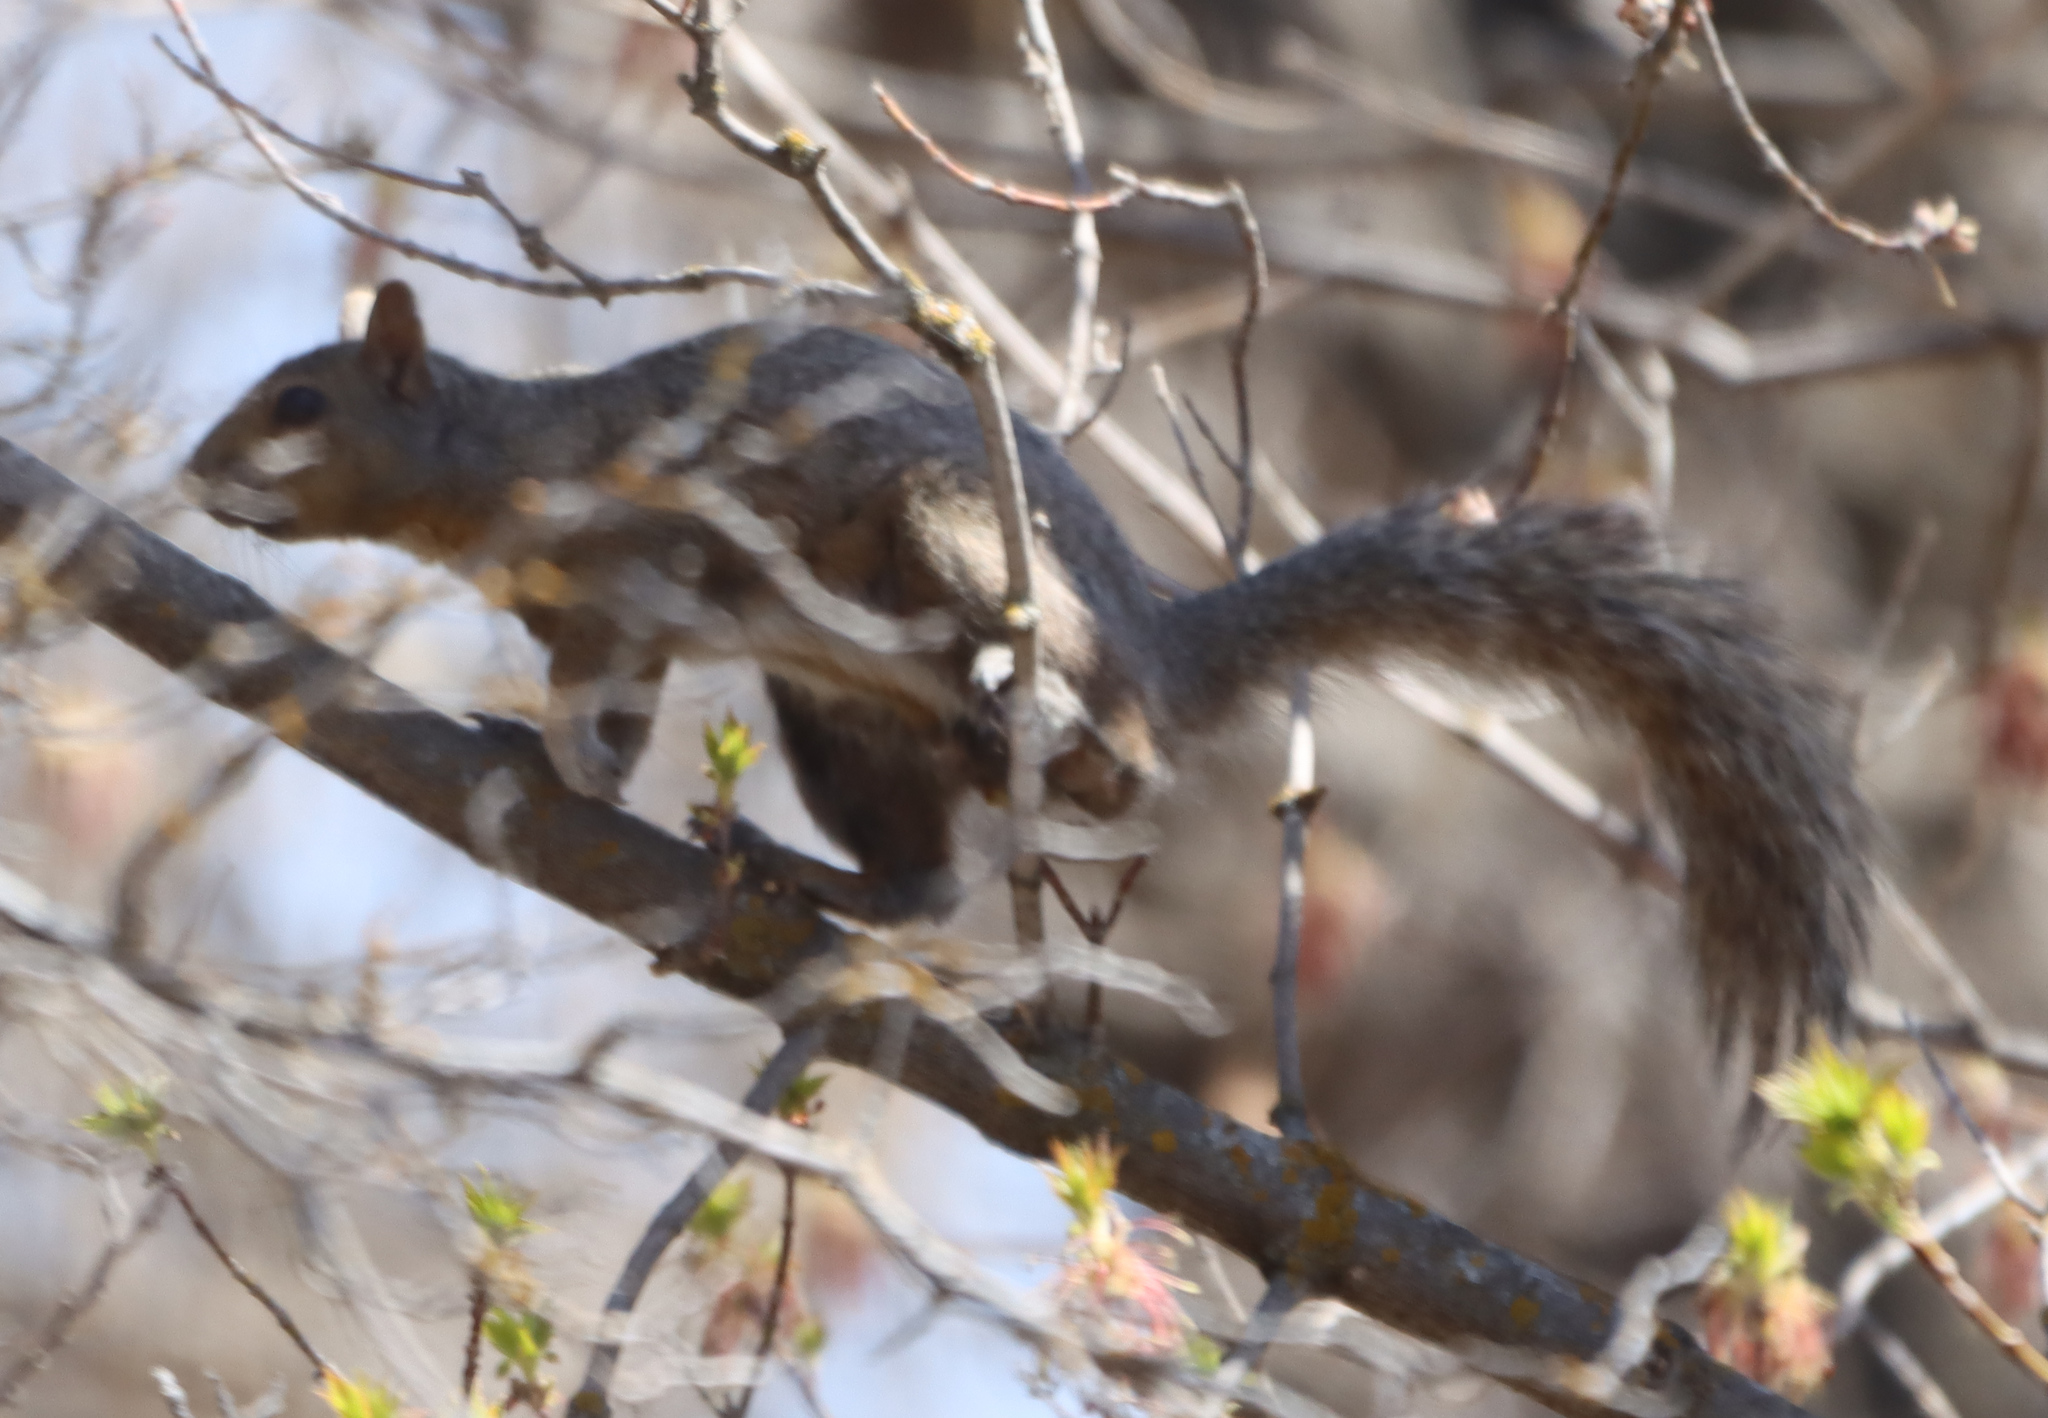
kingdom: Animalia
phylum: Chordata
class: Mammalia
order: Rodentia
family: Sciuridae
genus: Sciurus
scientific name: Sciurus carolinensis
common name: Eastern gray squirrel
